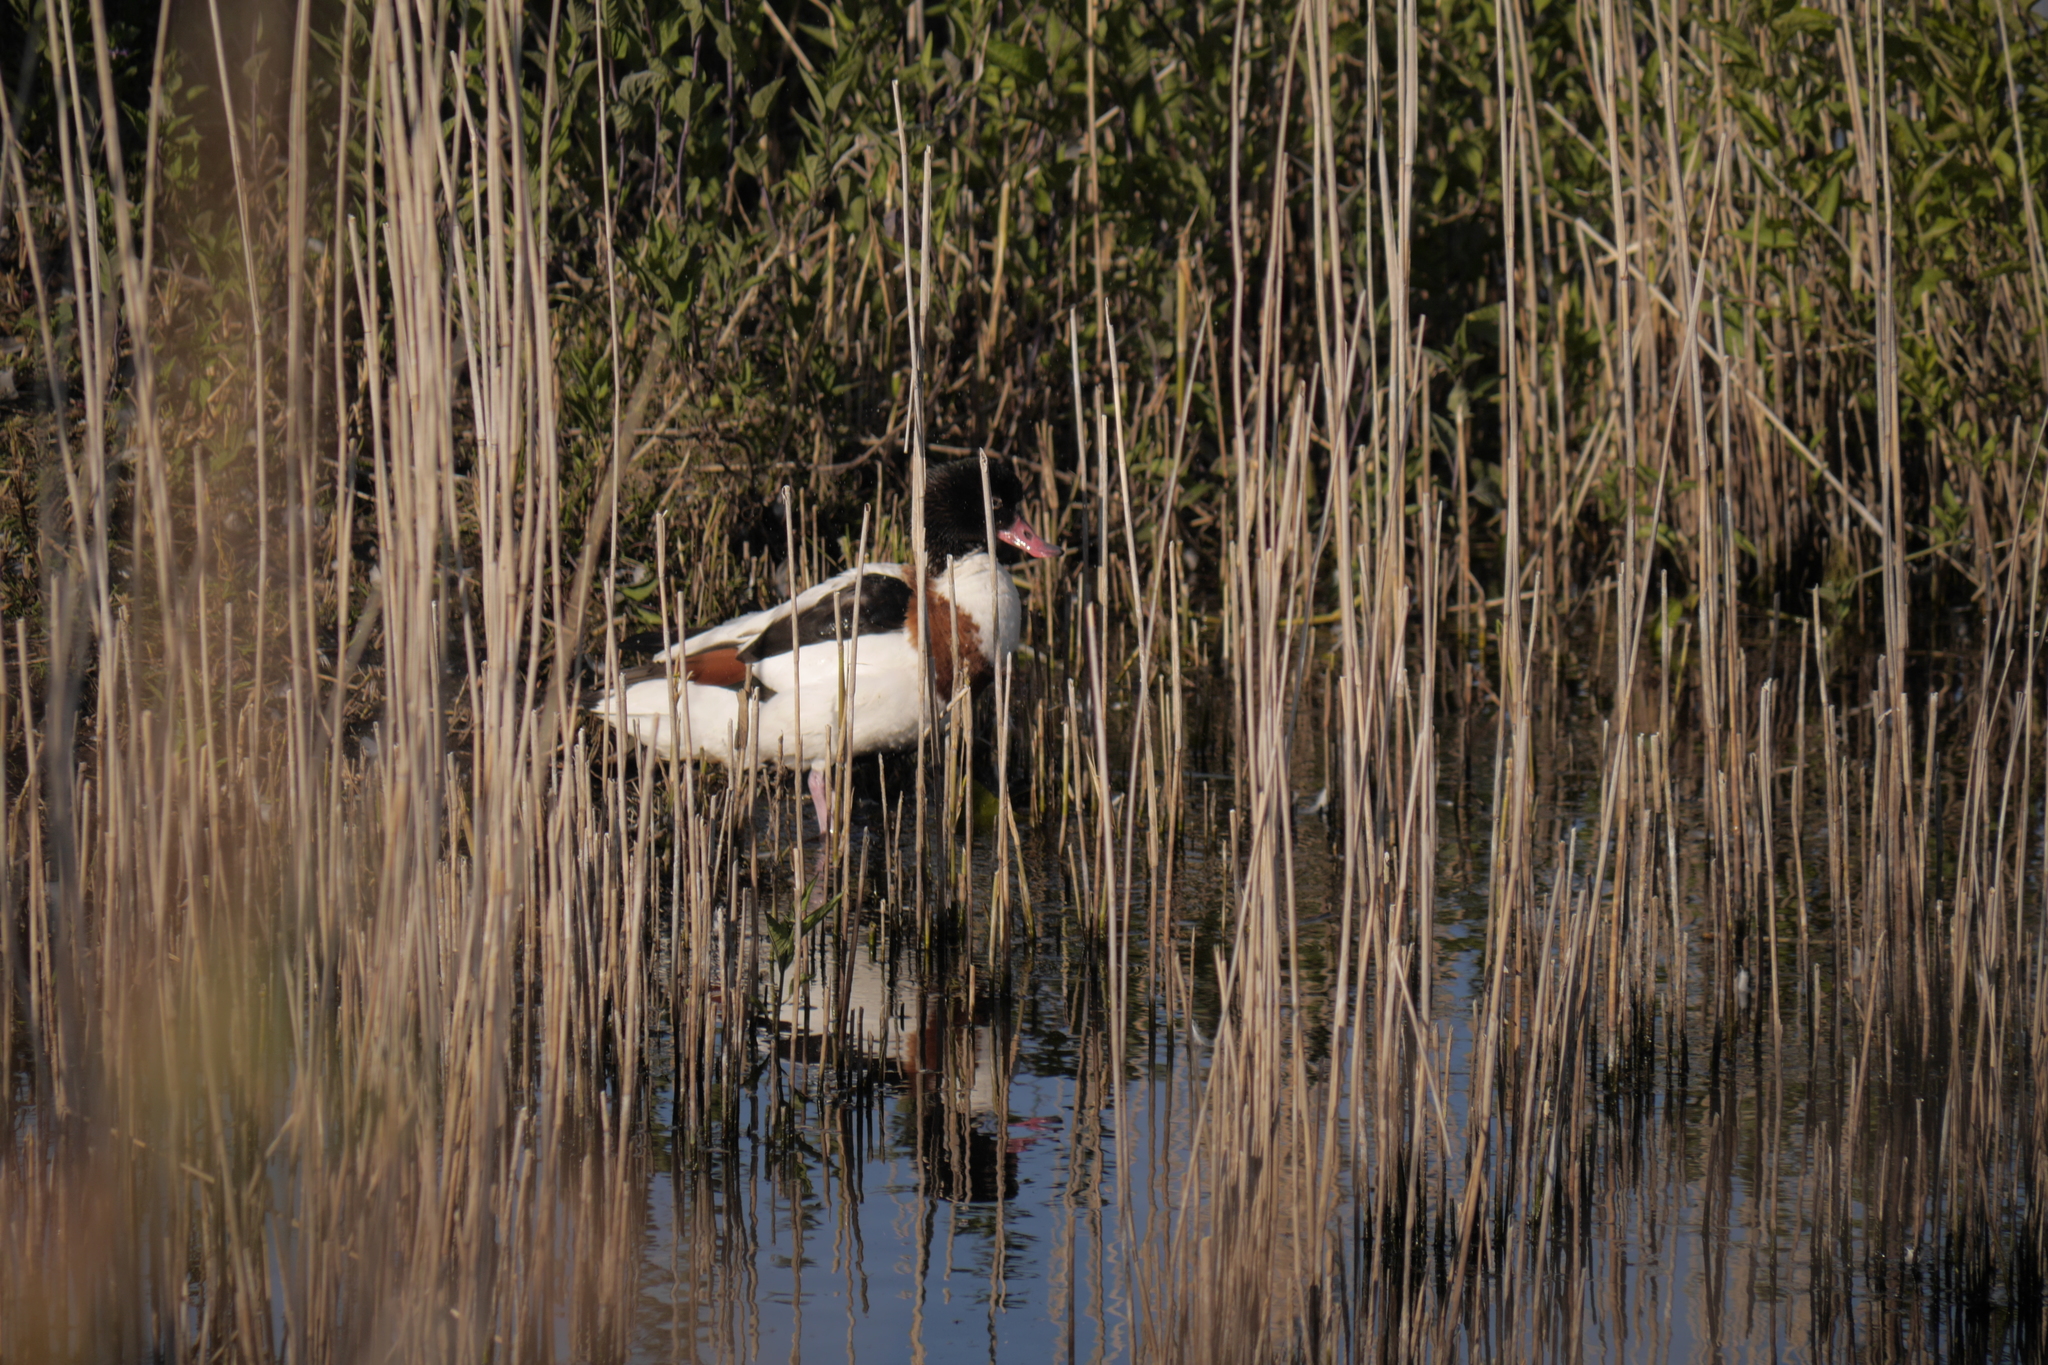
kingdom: Animalia
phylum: Chordata
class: Aves
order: Anseriformes
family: Anatidae
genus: Tadorna
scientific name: Tadorna tadorna
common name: Common shelduck
